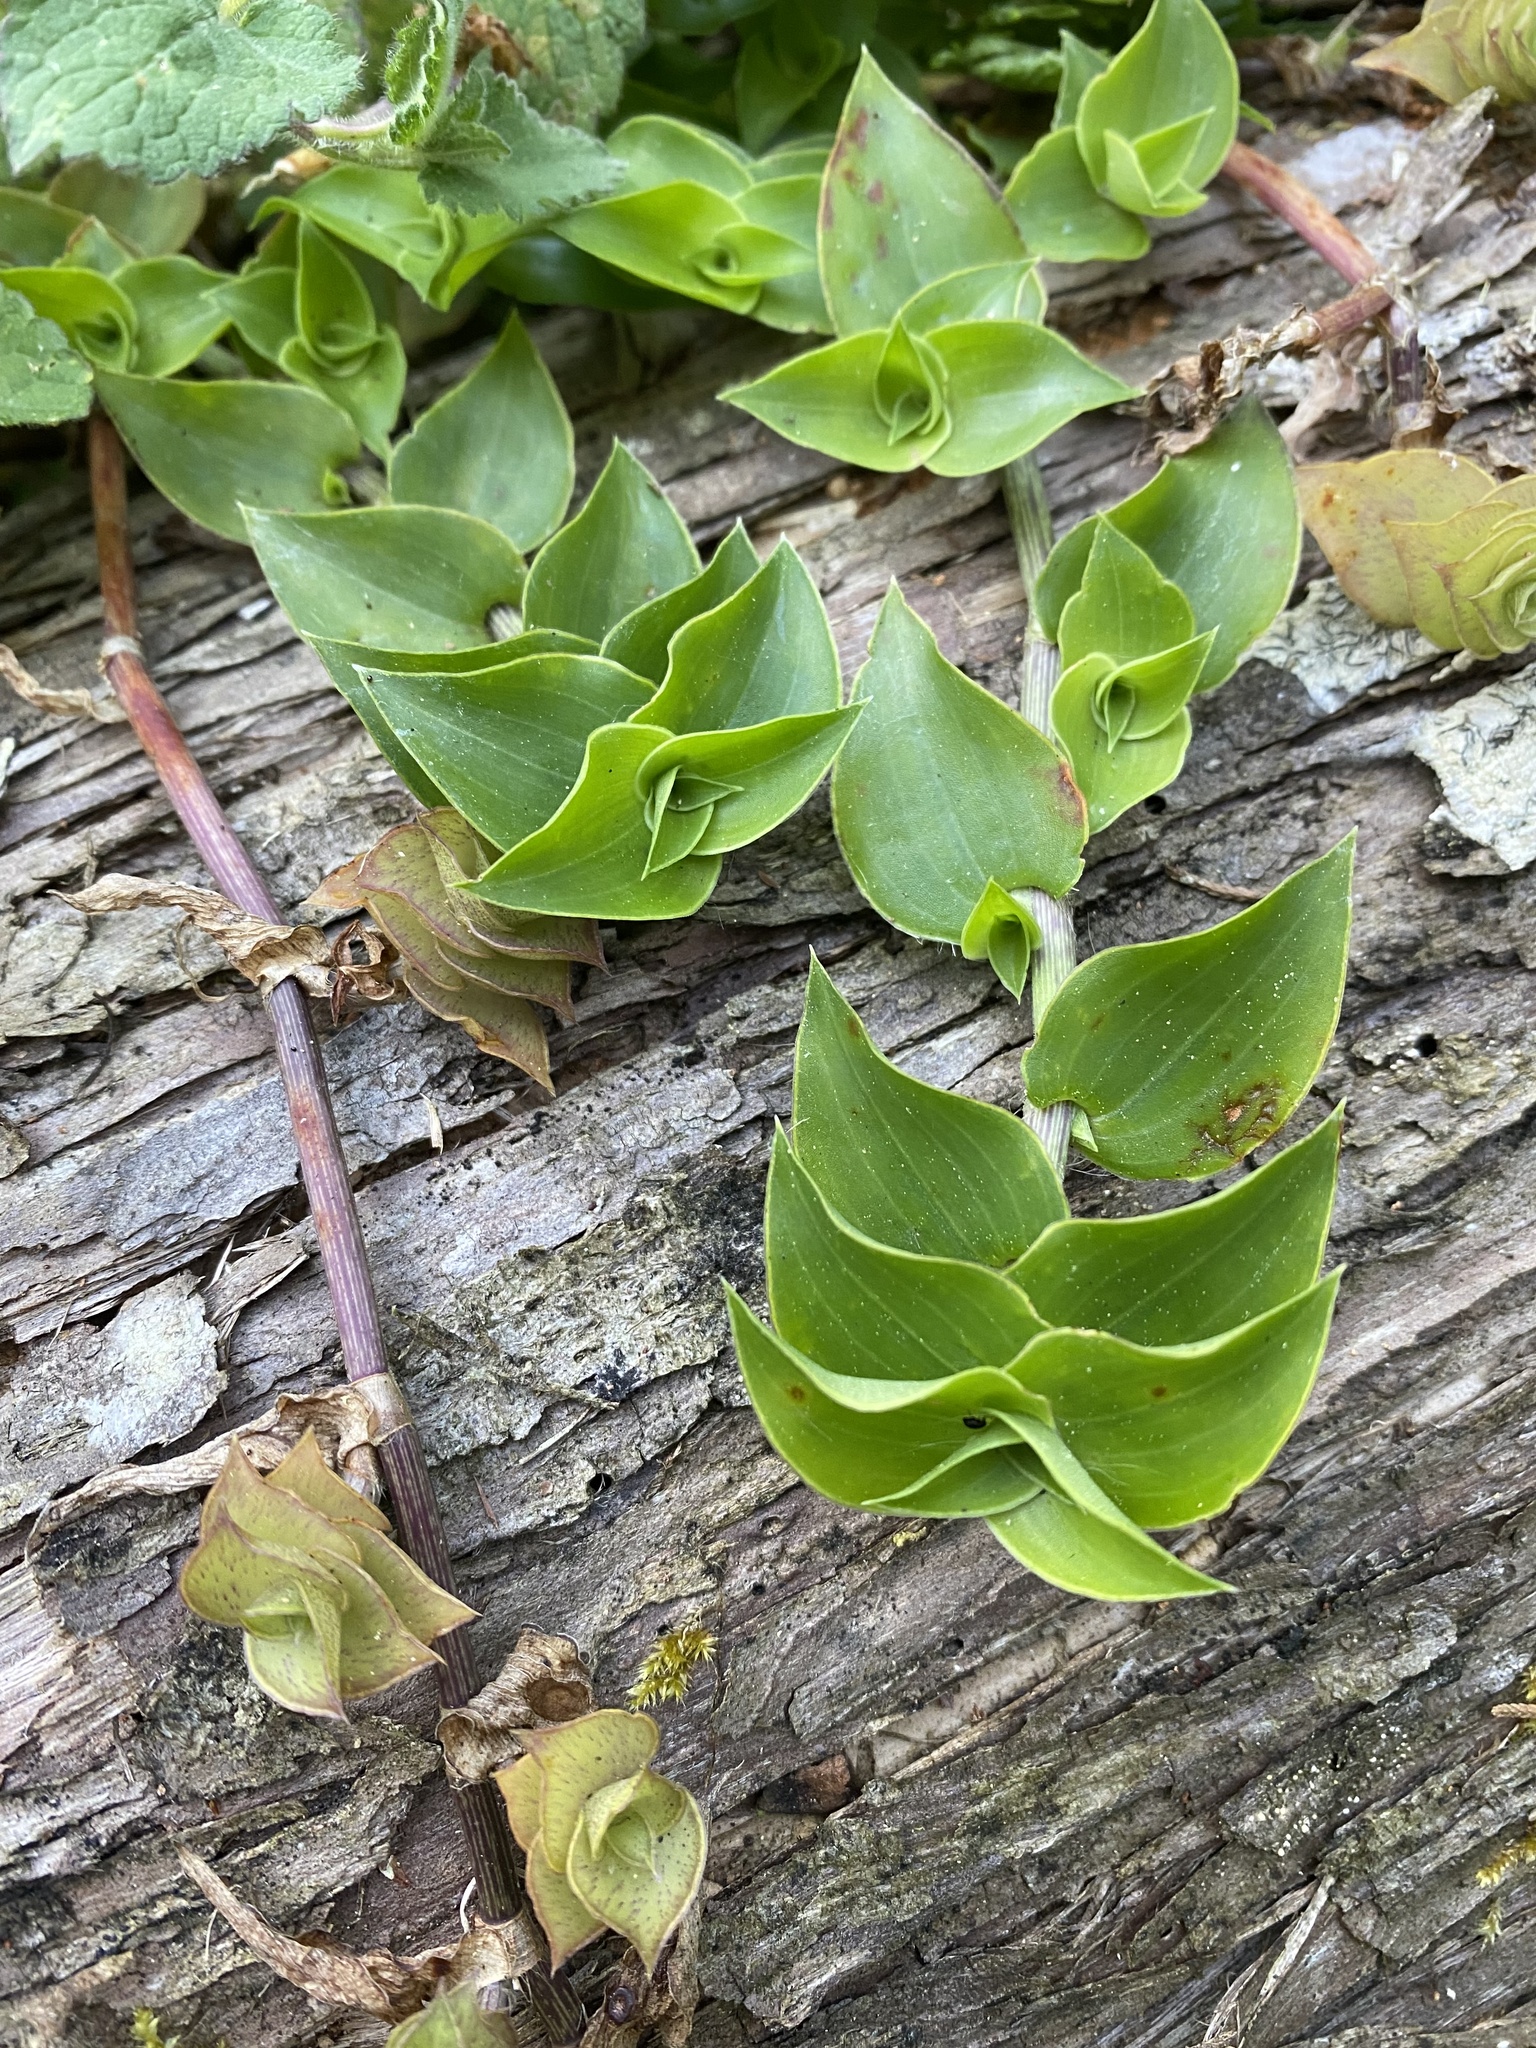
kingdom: Plantae
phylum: Tracheophyta
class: Liliopsida
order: Commelinales
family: Commelinaceae
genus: Callisia
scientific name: Callisia repens
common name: Creeping inchplant
